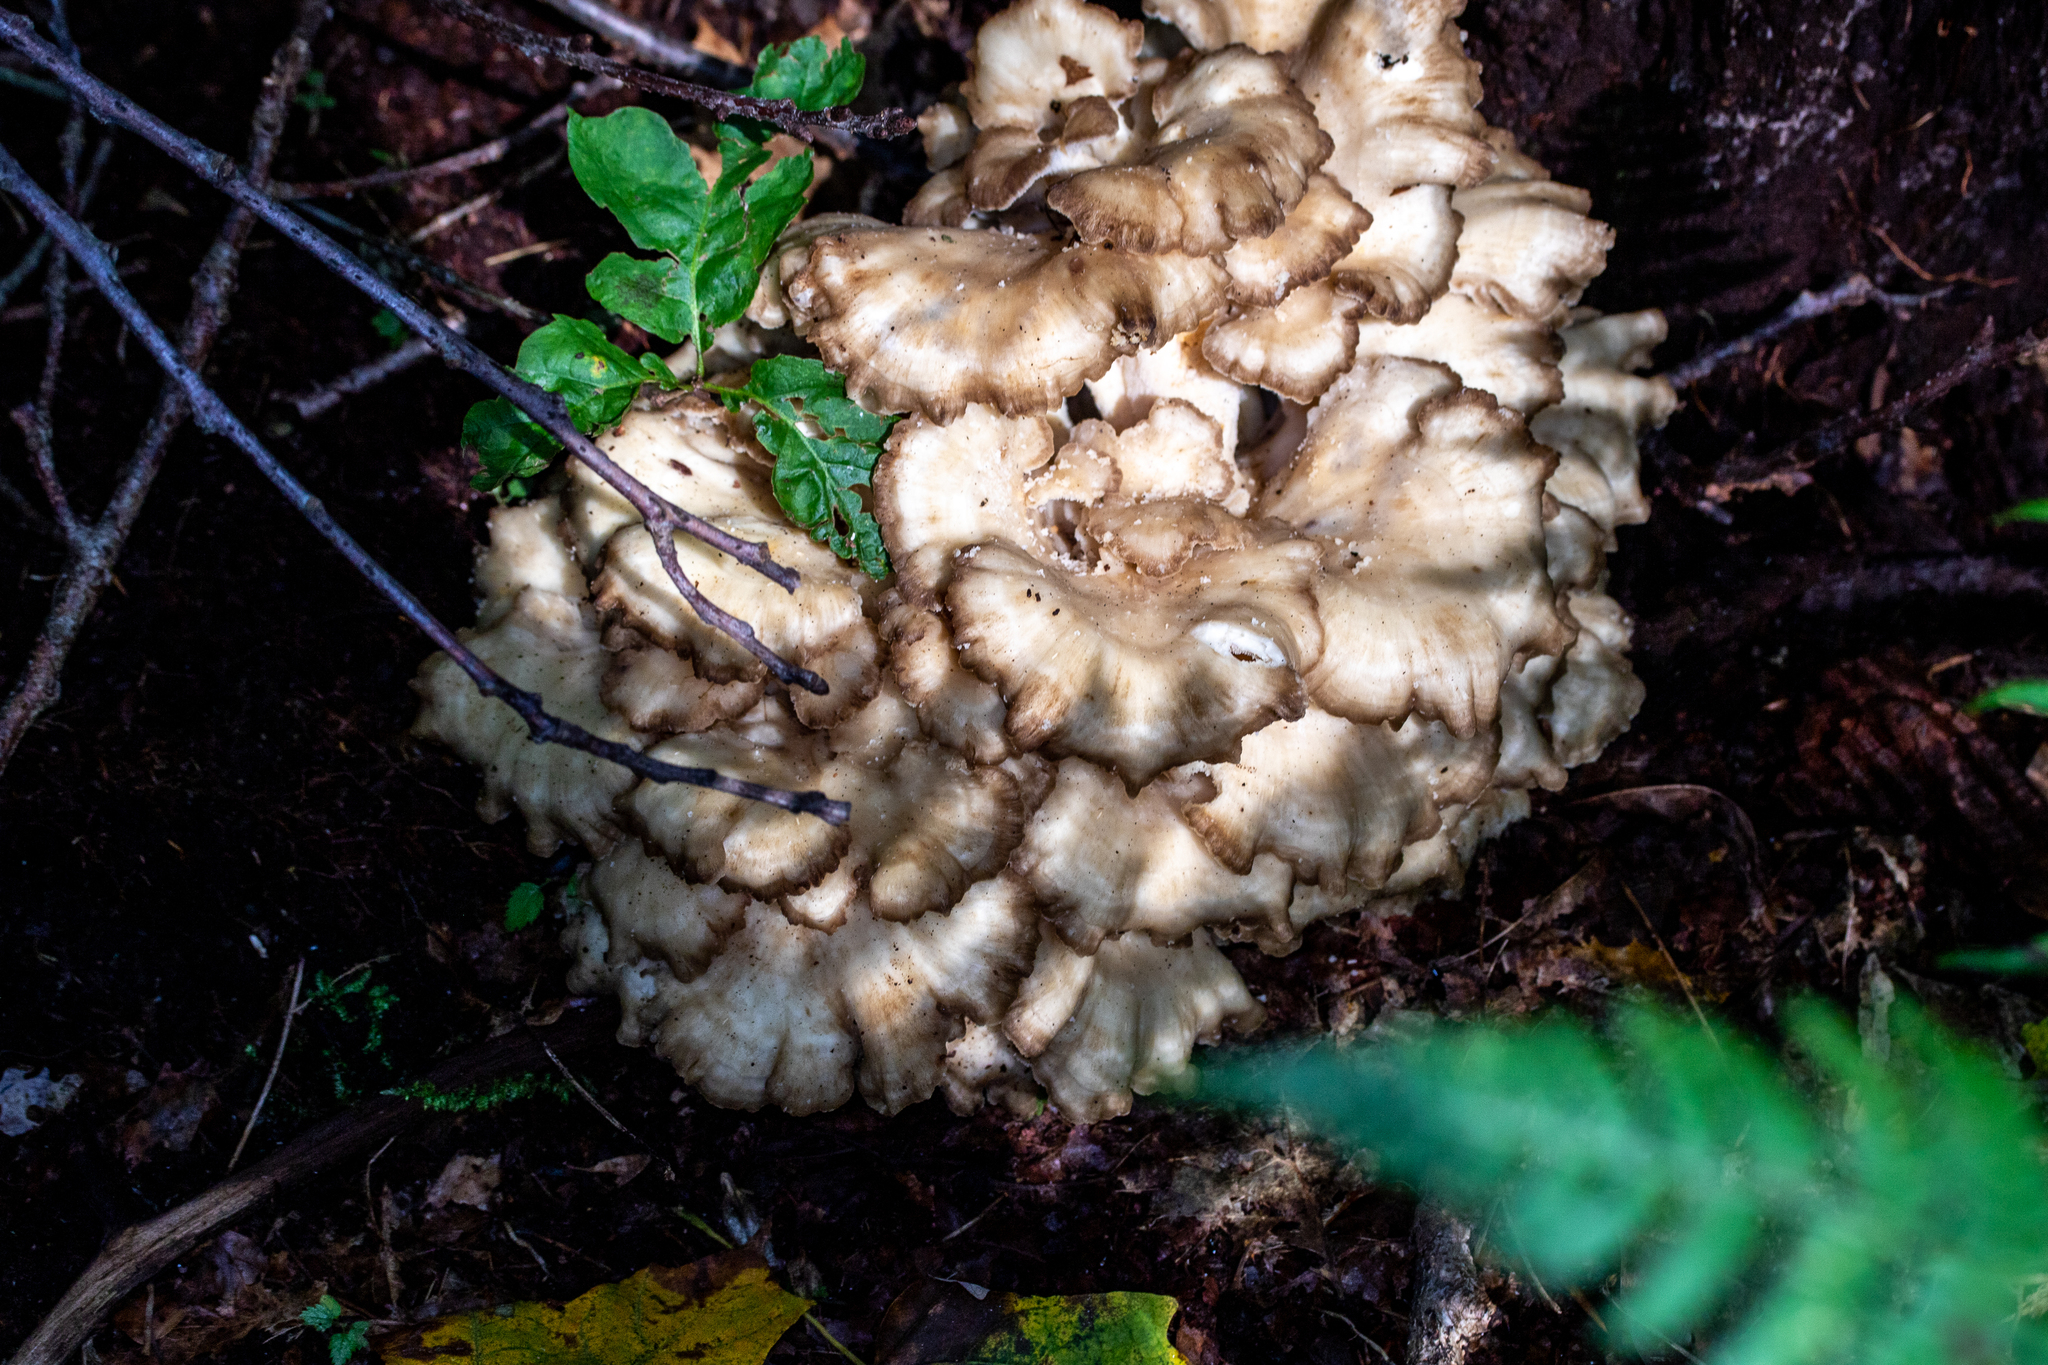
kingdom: Fungi
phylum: Basidiomycota
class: Agaricomycetes
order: Polyporales
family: Grifolaceae
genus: Grifola
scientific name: Grifola frondosa
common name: Hen of the woods
